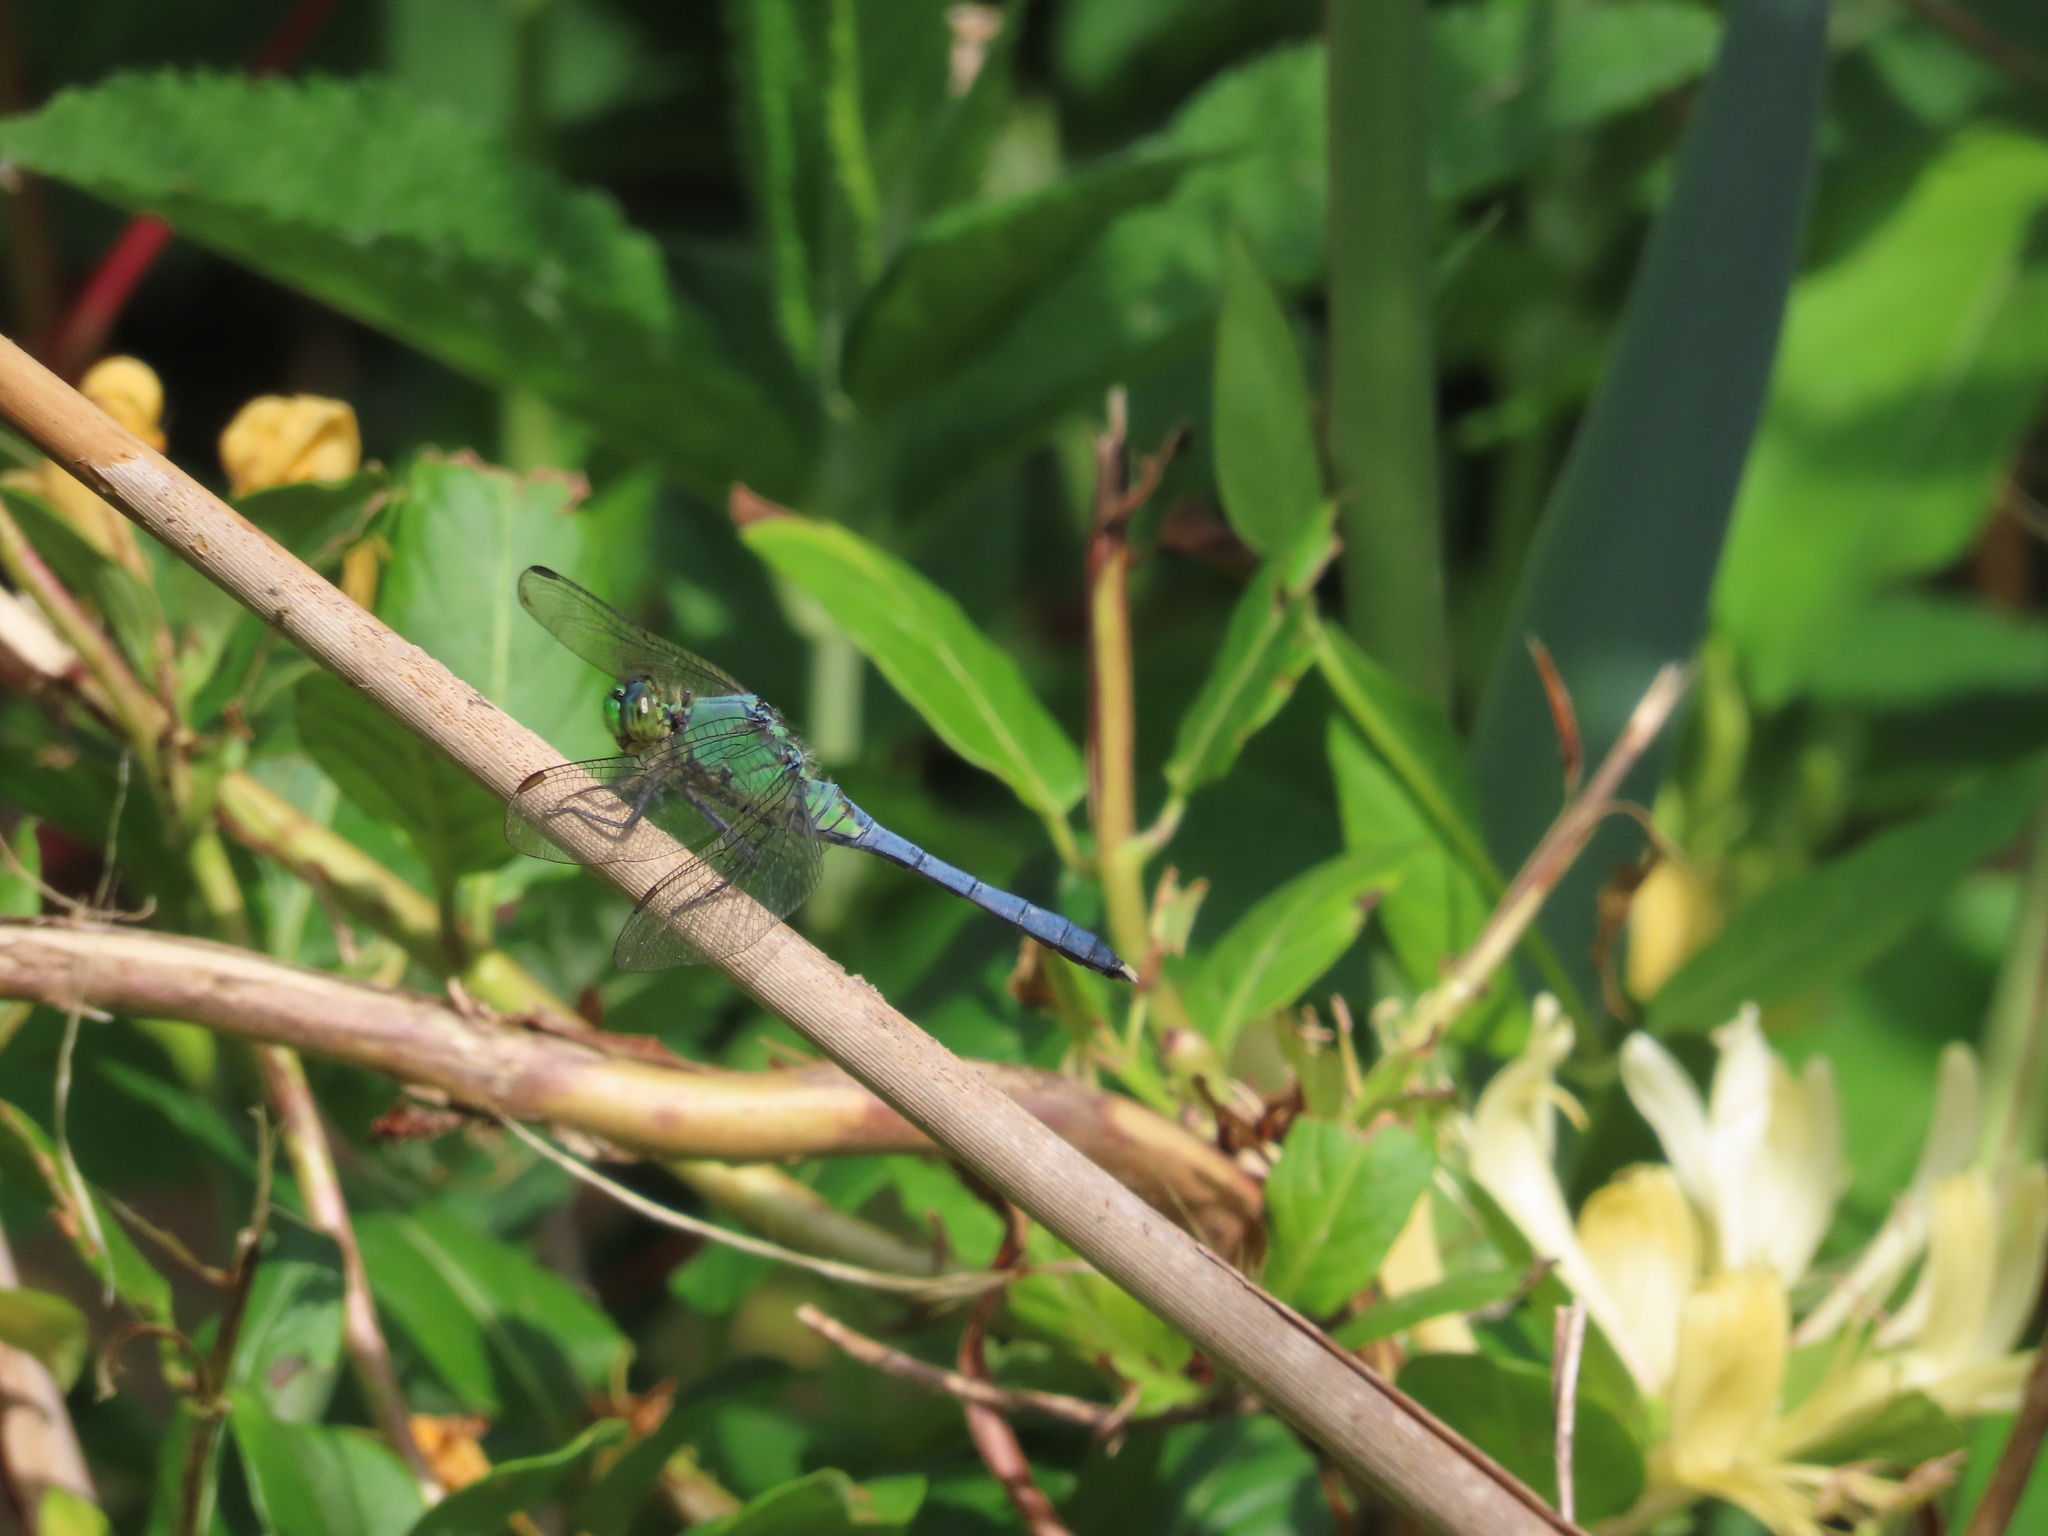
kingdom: Animalia
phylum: Arthropoda
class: Insecta
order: Odonata
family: Libellulidae
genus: Erythemis
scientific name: Erythemis simplicicollis
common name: Eastern pondhawk
